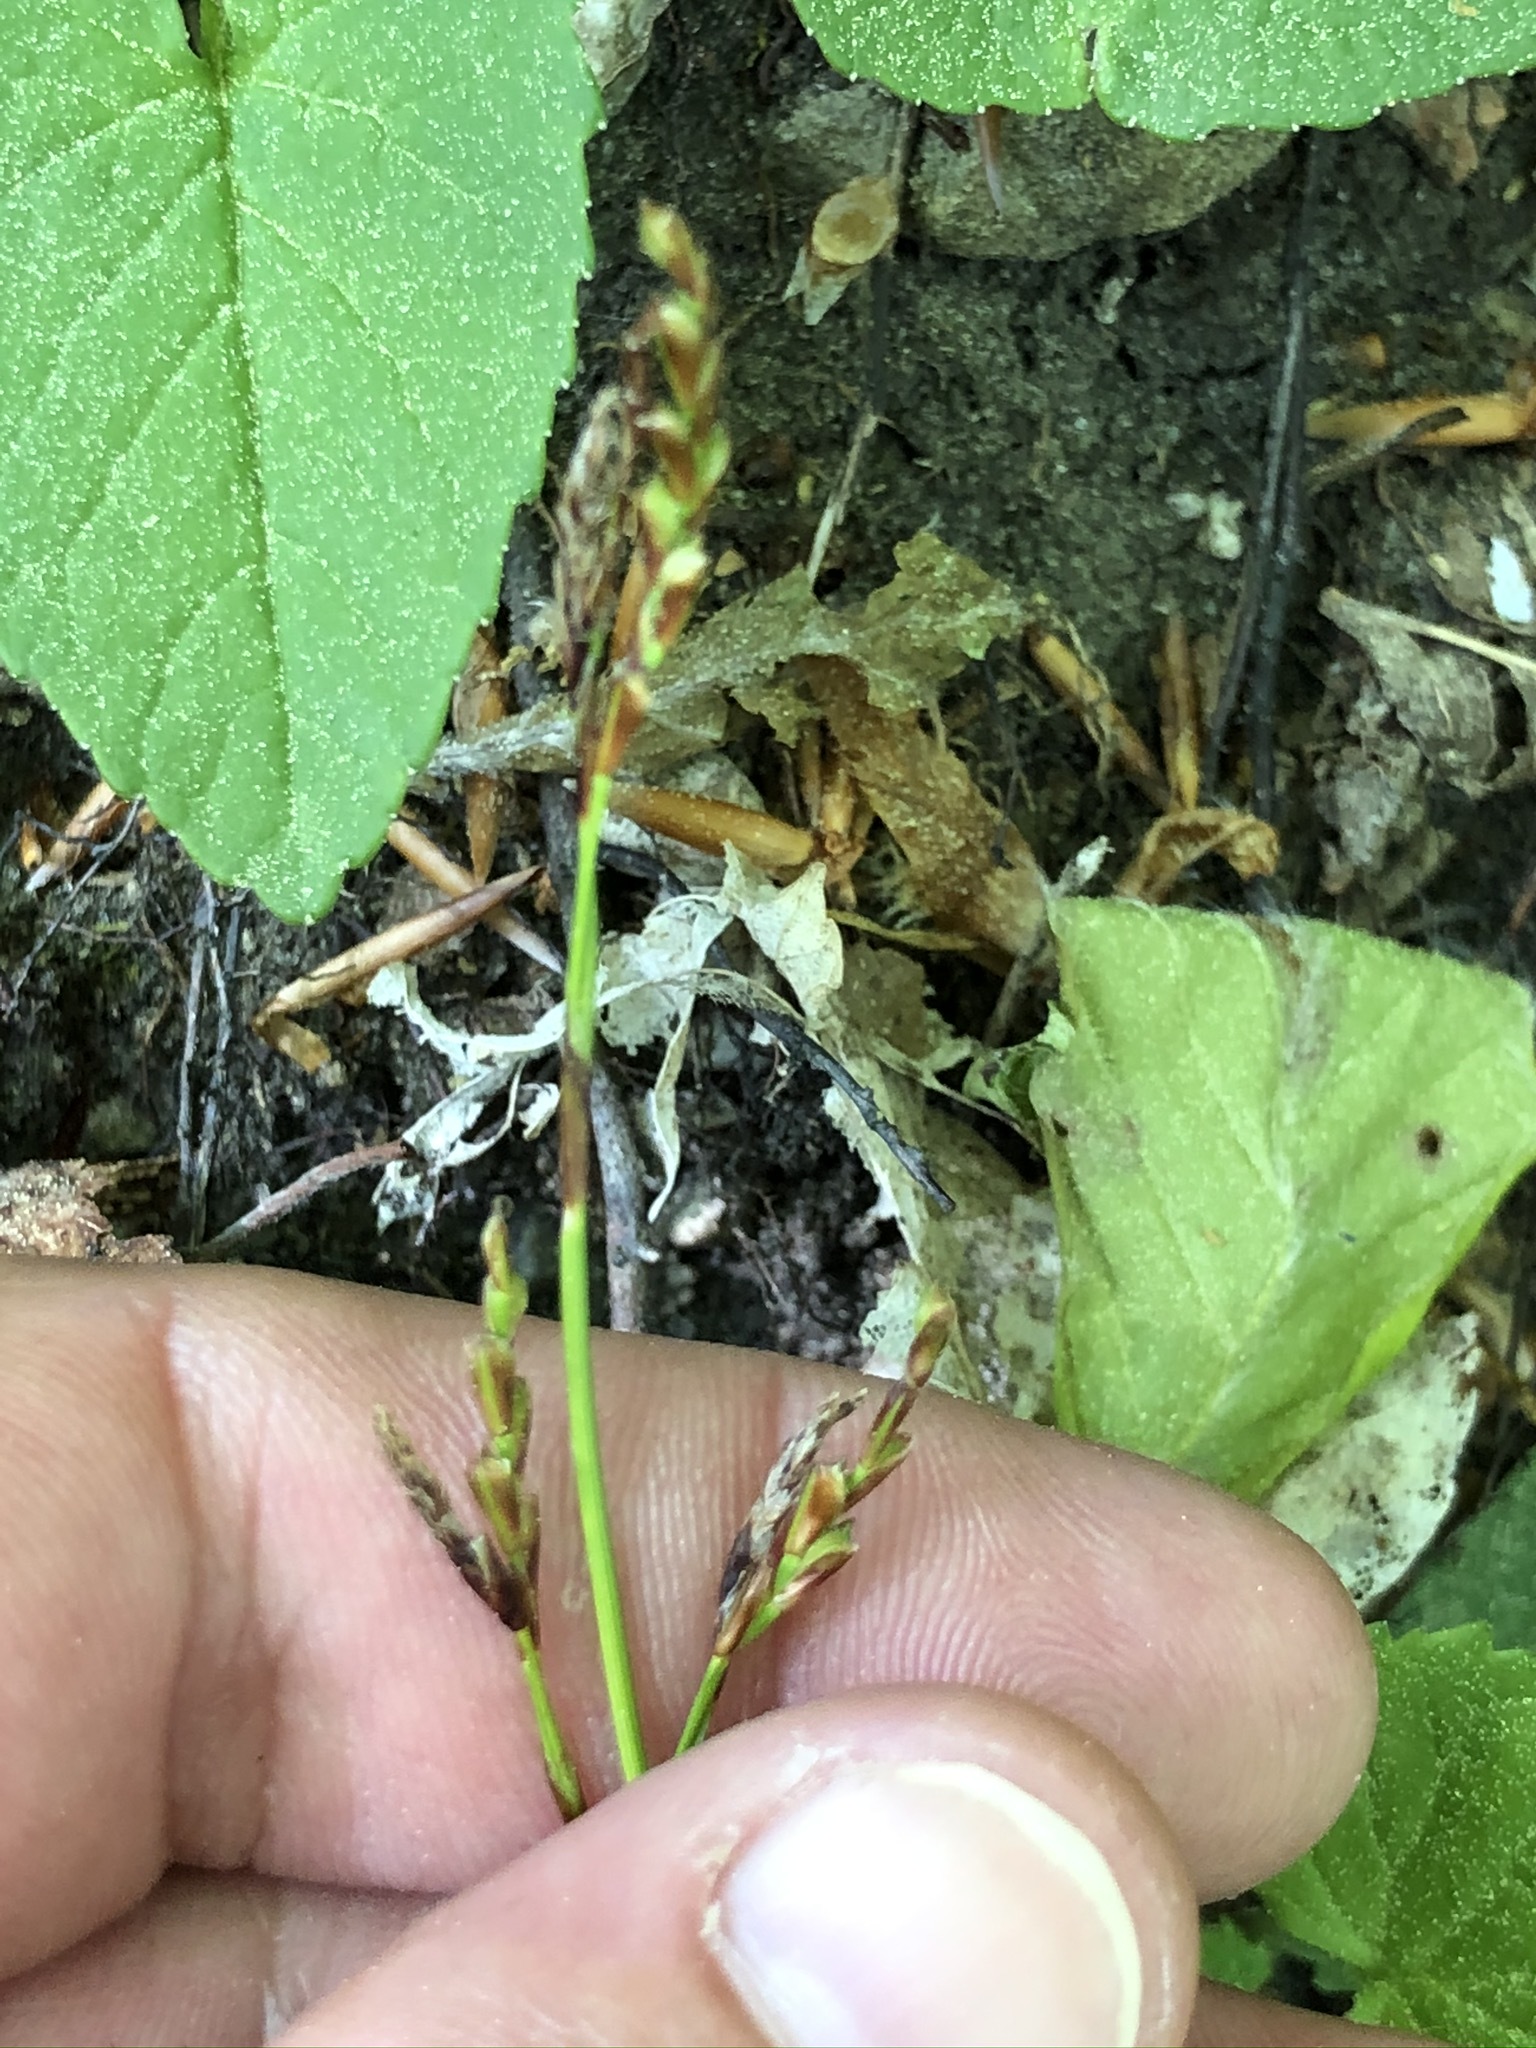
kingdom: Plantae
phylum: Tracheophyta
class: Liliopsida
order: Poales
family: Cyperaceae
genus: Carex
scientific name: Carex digitata
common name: Fingered sedge
